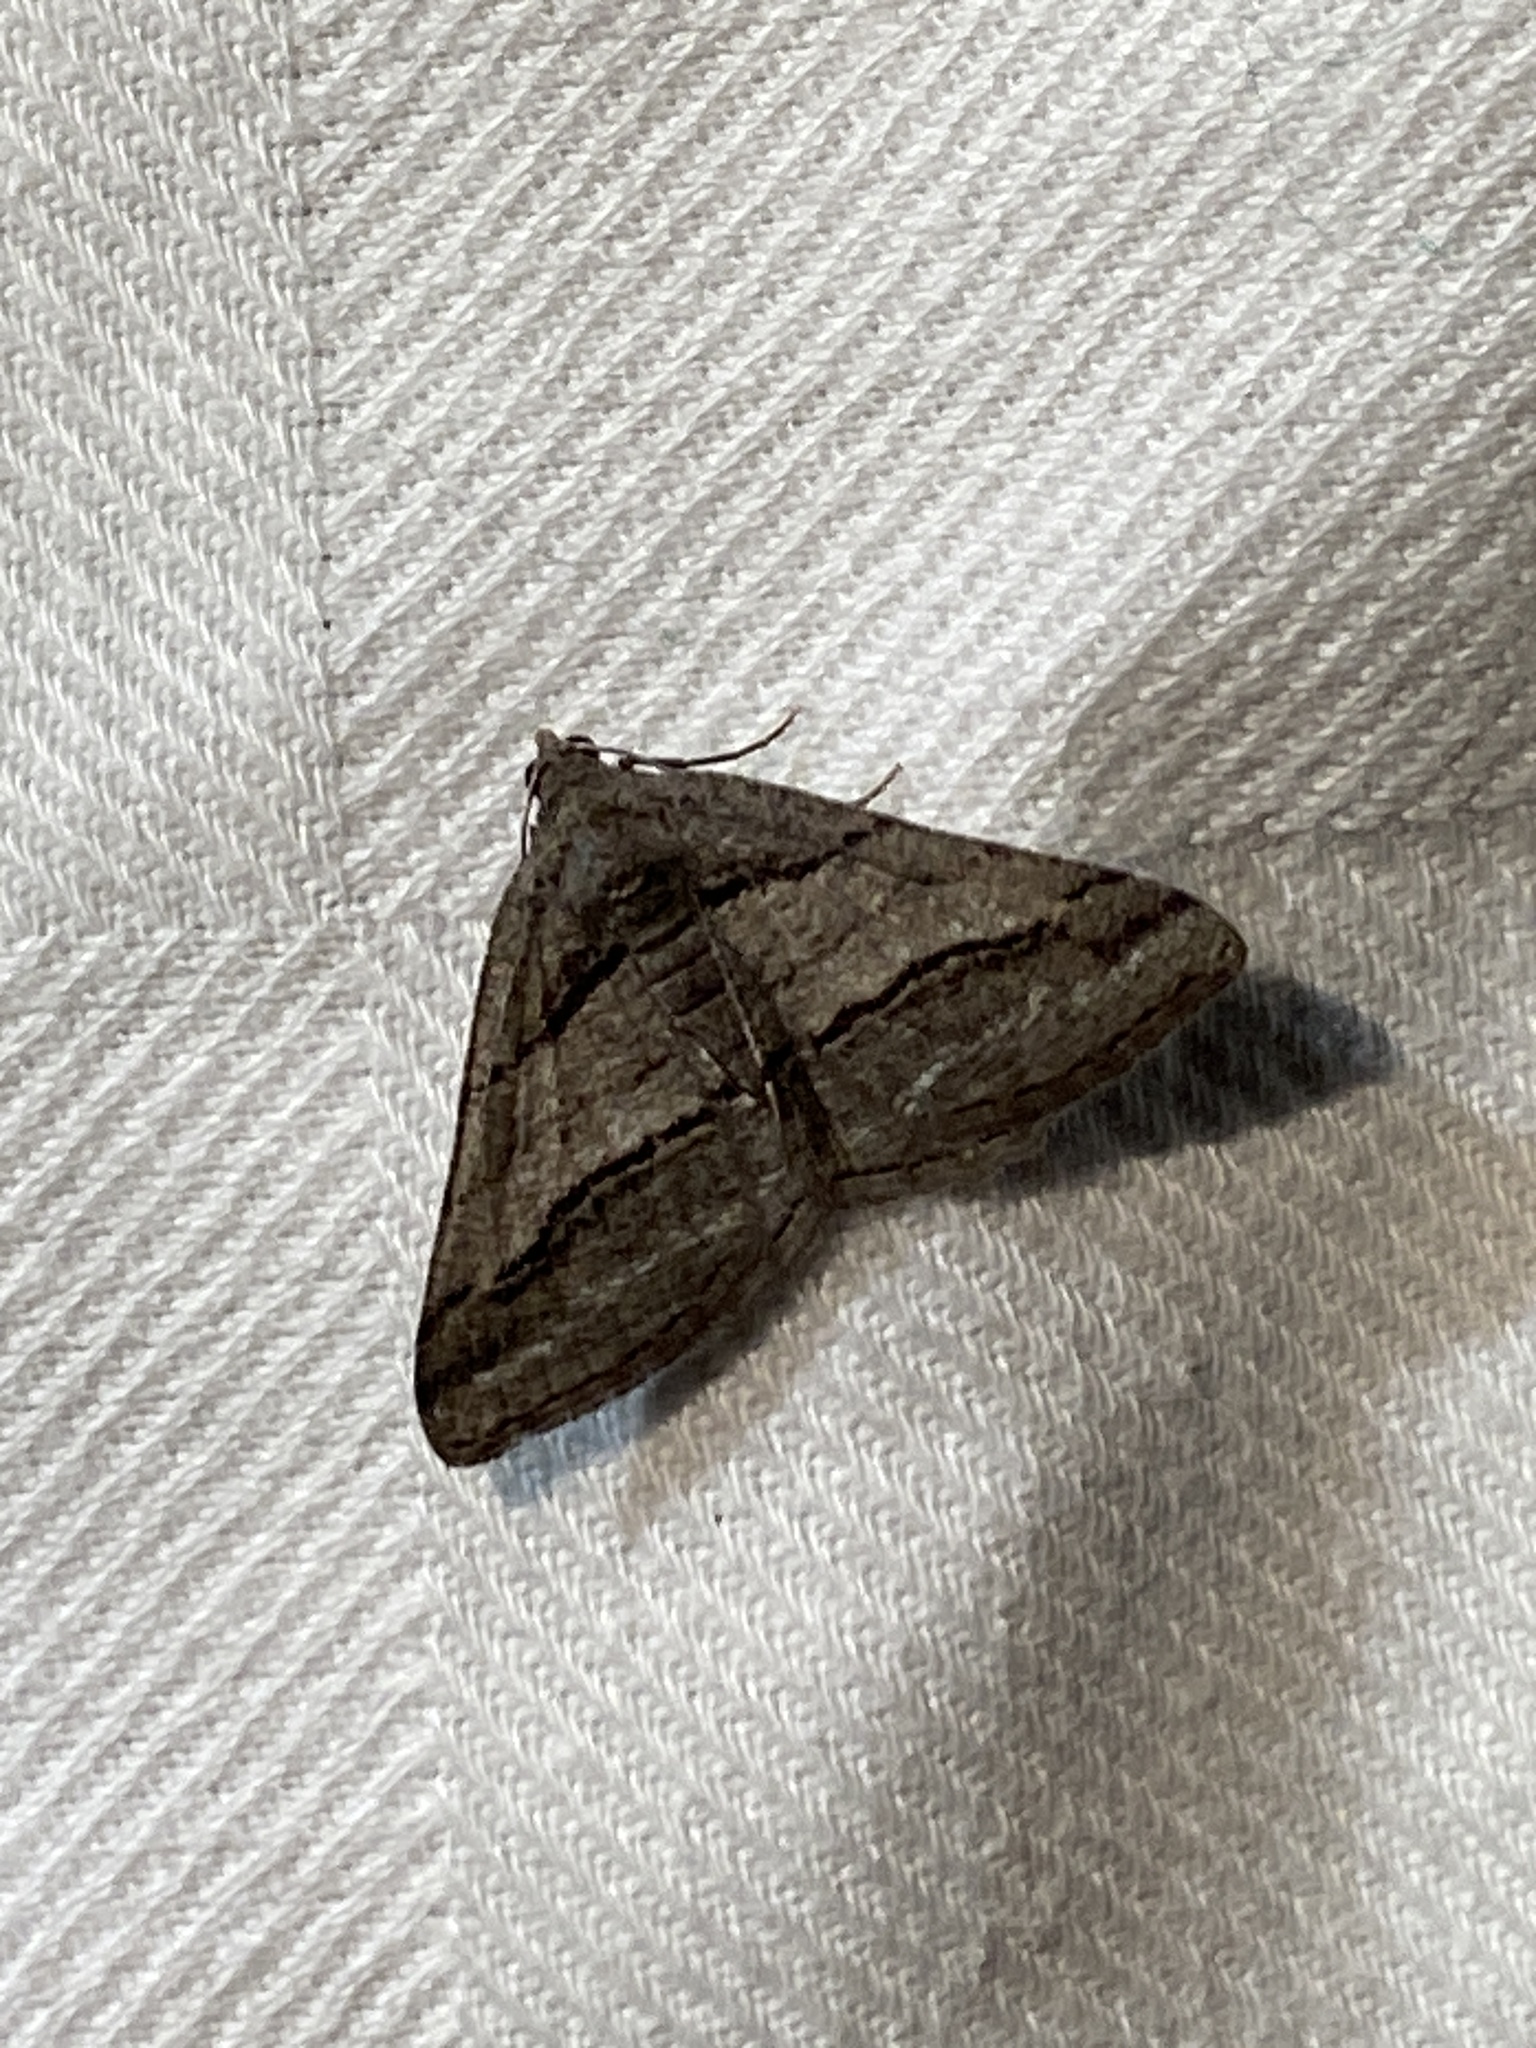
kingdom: Animalia
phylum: Arthropoda
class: Insecta
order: Lepidoptera
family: Geometridae
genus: Digrammia
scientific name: Digrammia atrofasciata
